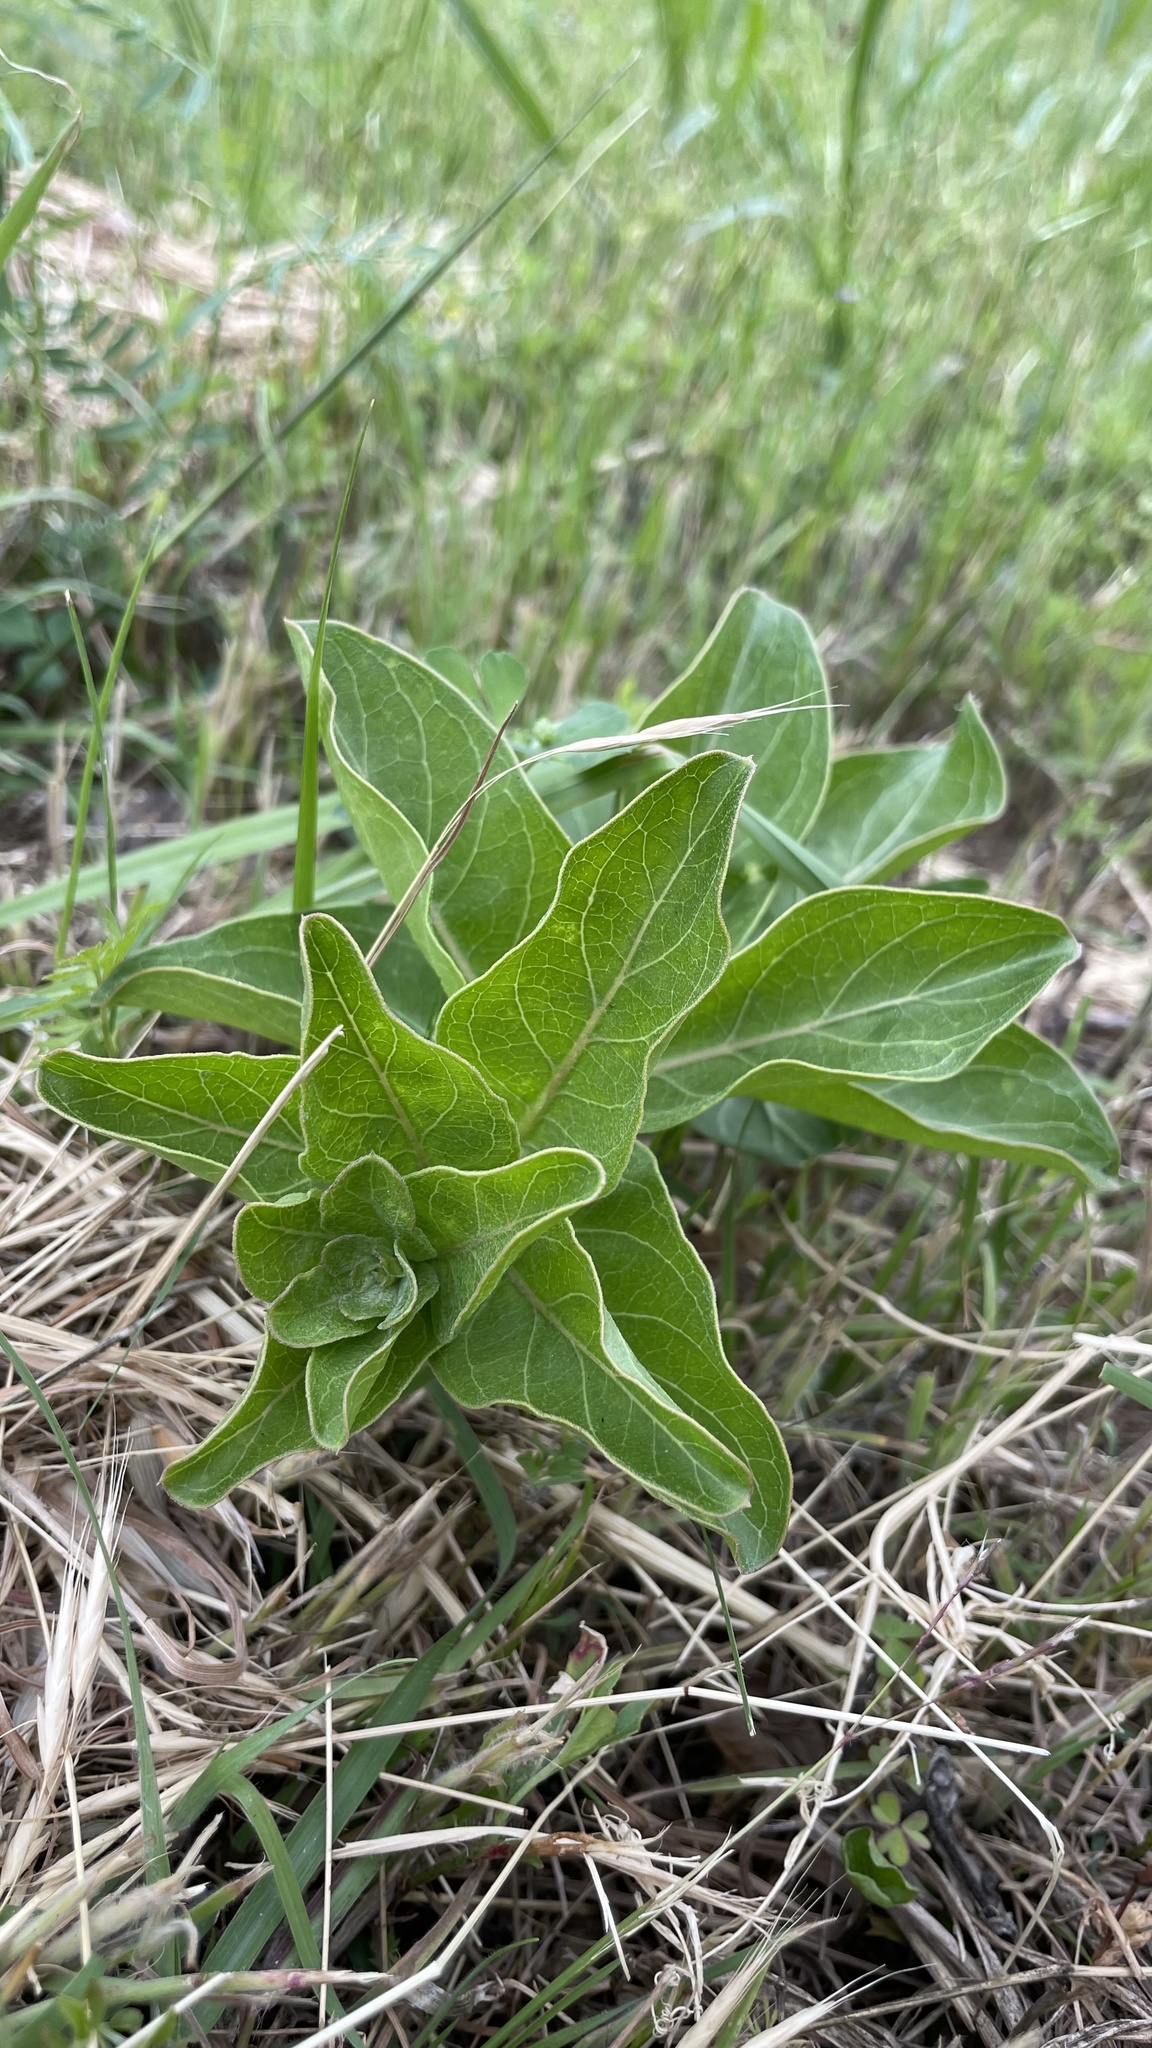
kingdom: Plantae
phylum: Tracheophyta
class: Magnoliopsida
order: Gentianales
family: Apocynaceae
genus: Asclepias
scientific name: Asclepias viridis
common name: Antelope-horns
